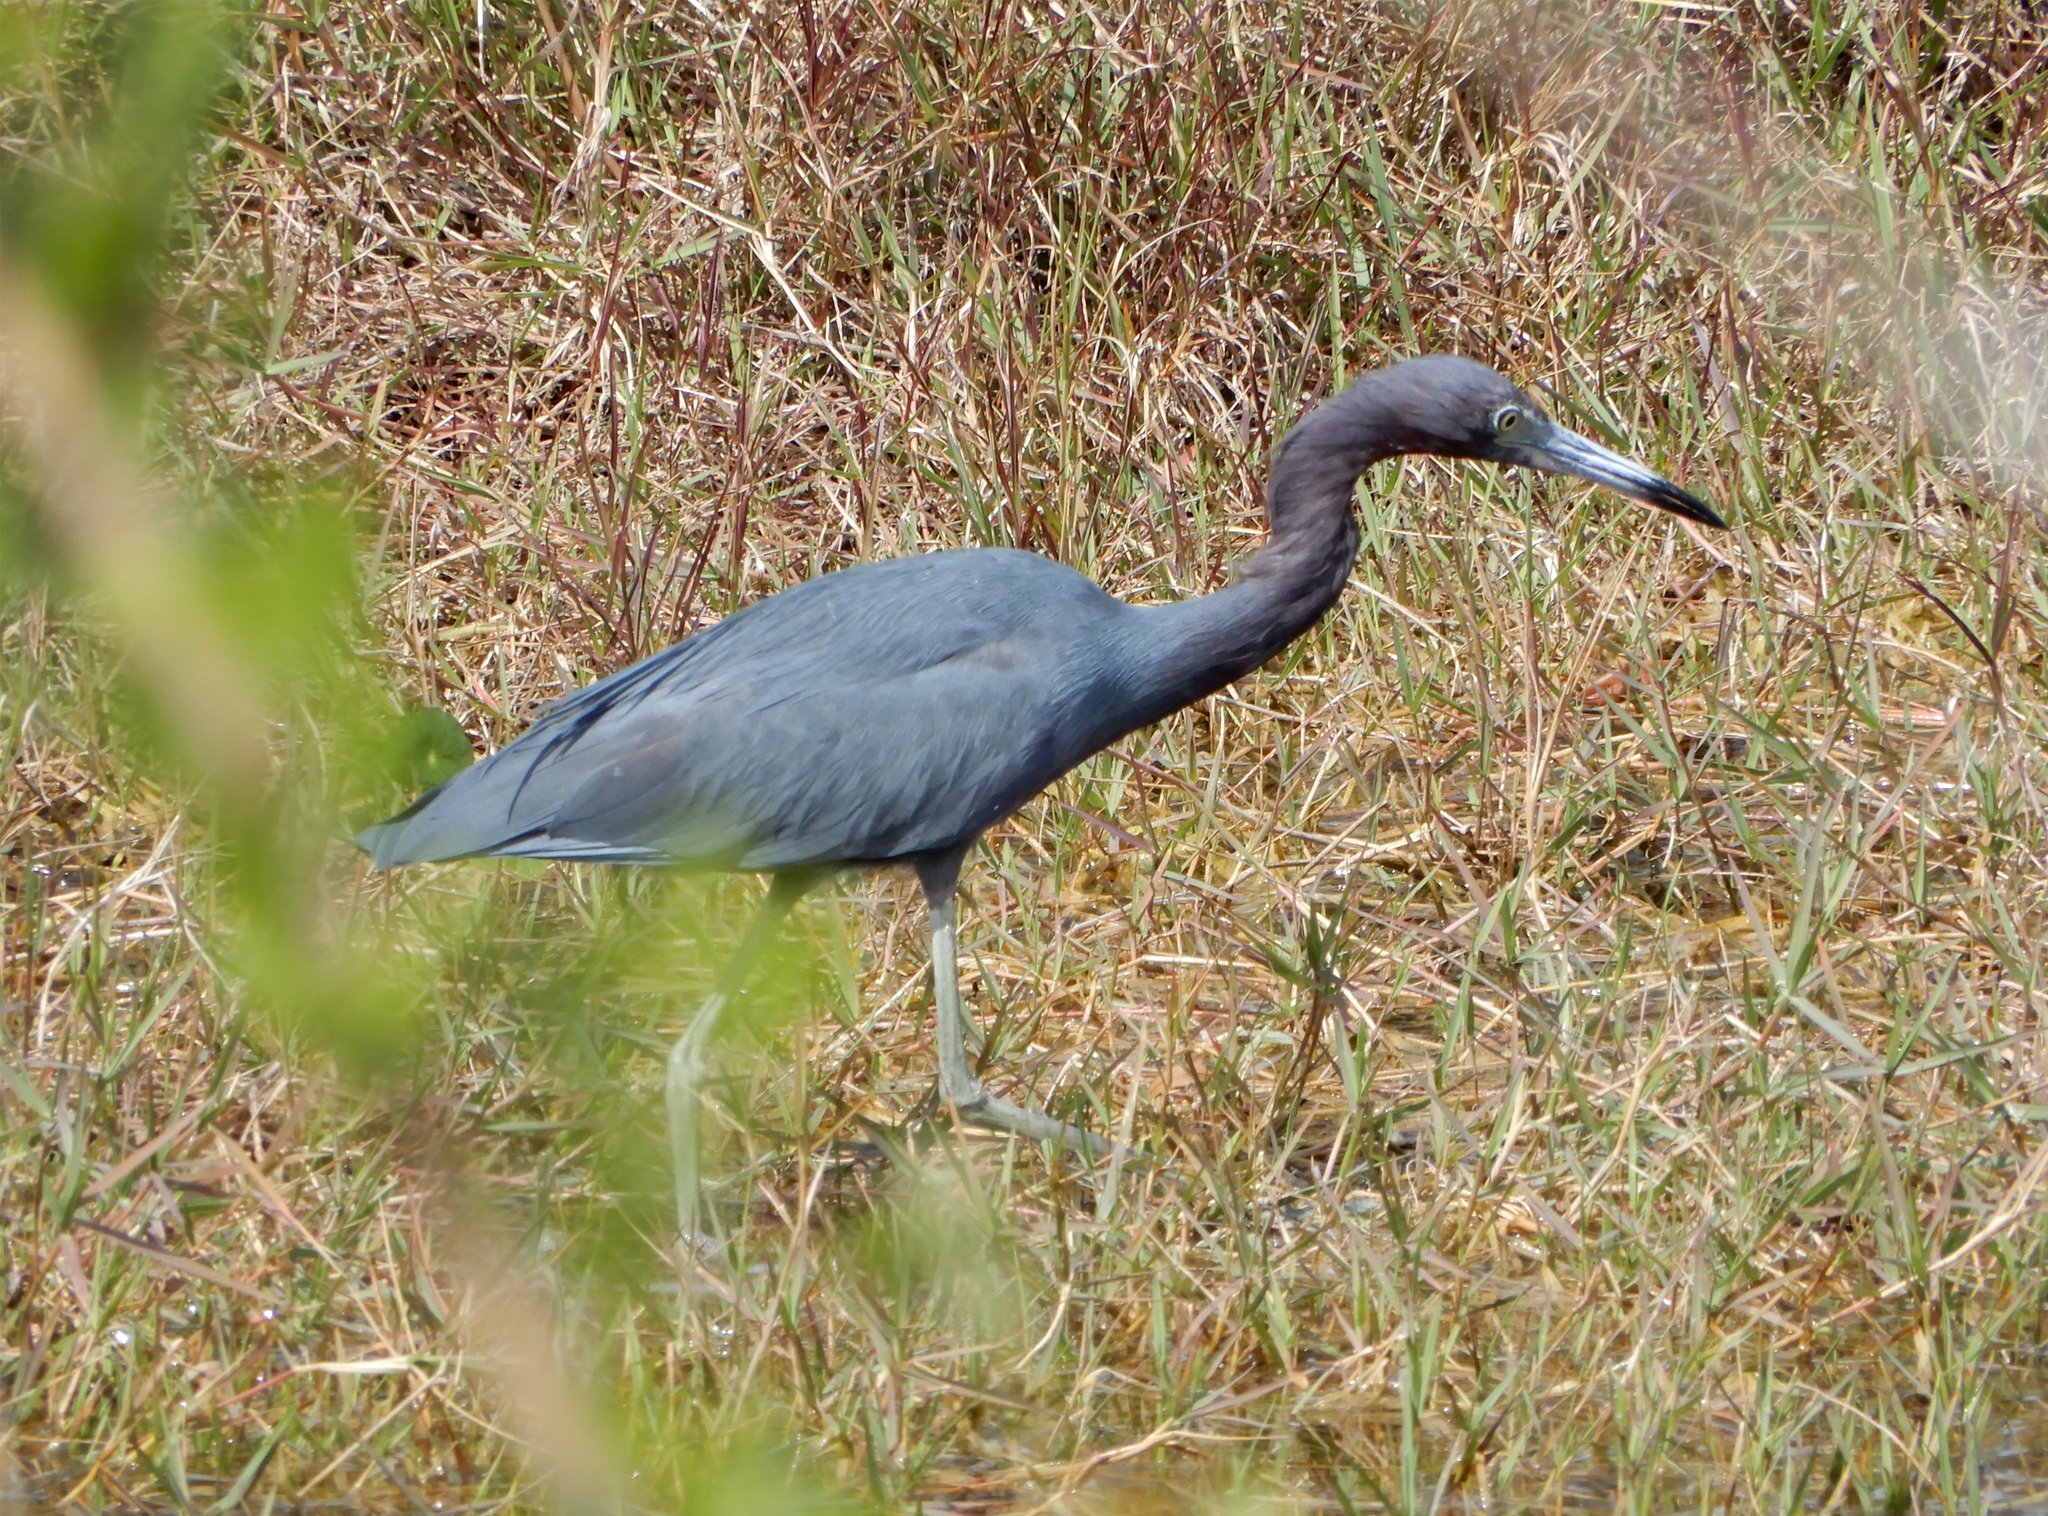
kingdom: Animalia
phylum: Chordata
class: Aves
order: Pelecaniformes
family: Ardeidae
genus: Egretta
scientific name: Egretta caerulea
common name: Little blue heron
